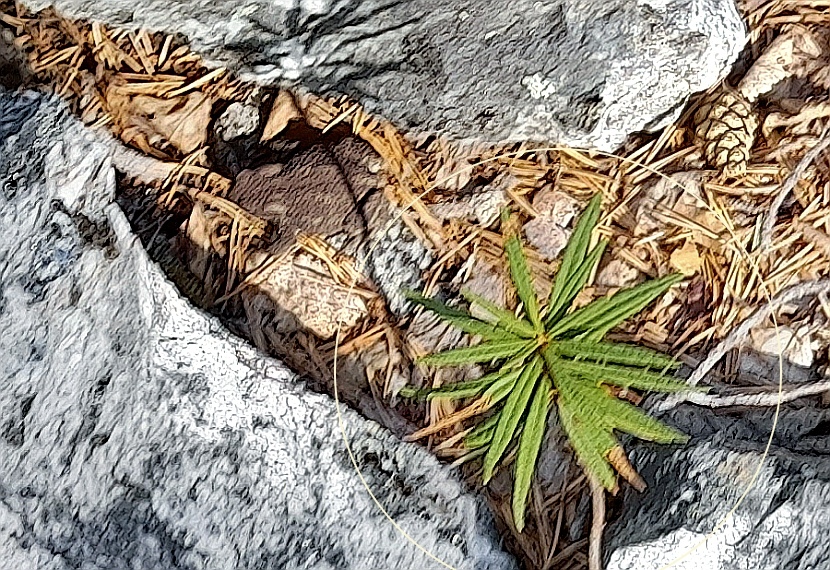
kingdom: Plantae
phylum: Tracheophyta
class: Magnoliopsida
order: Ericales
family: Ericaceae
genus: Rhododendron
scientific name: Rhododendron tomentosum
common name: Marsh labrador tea
